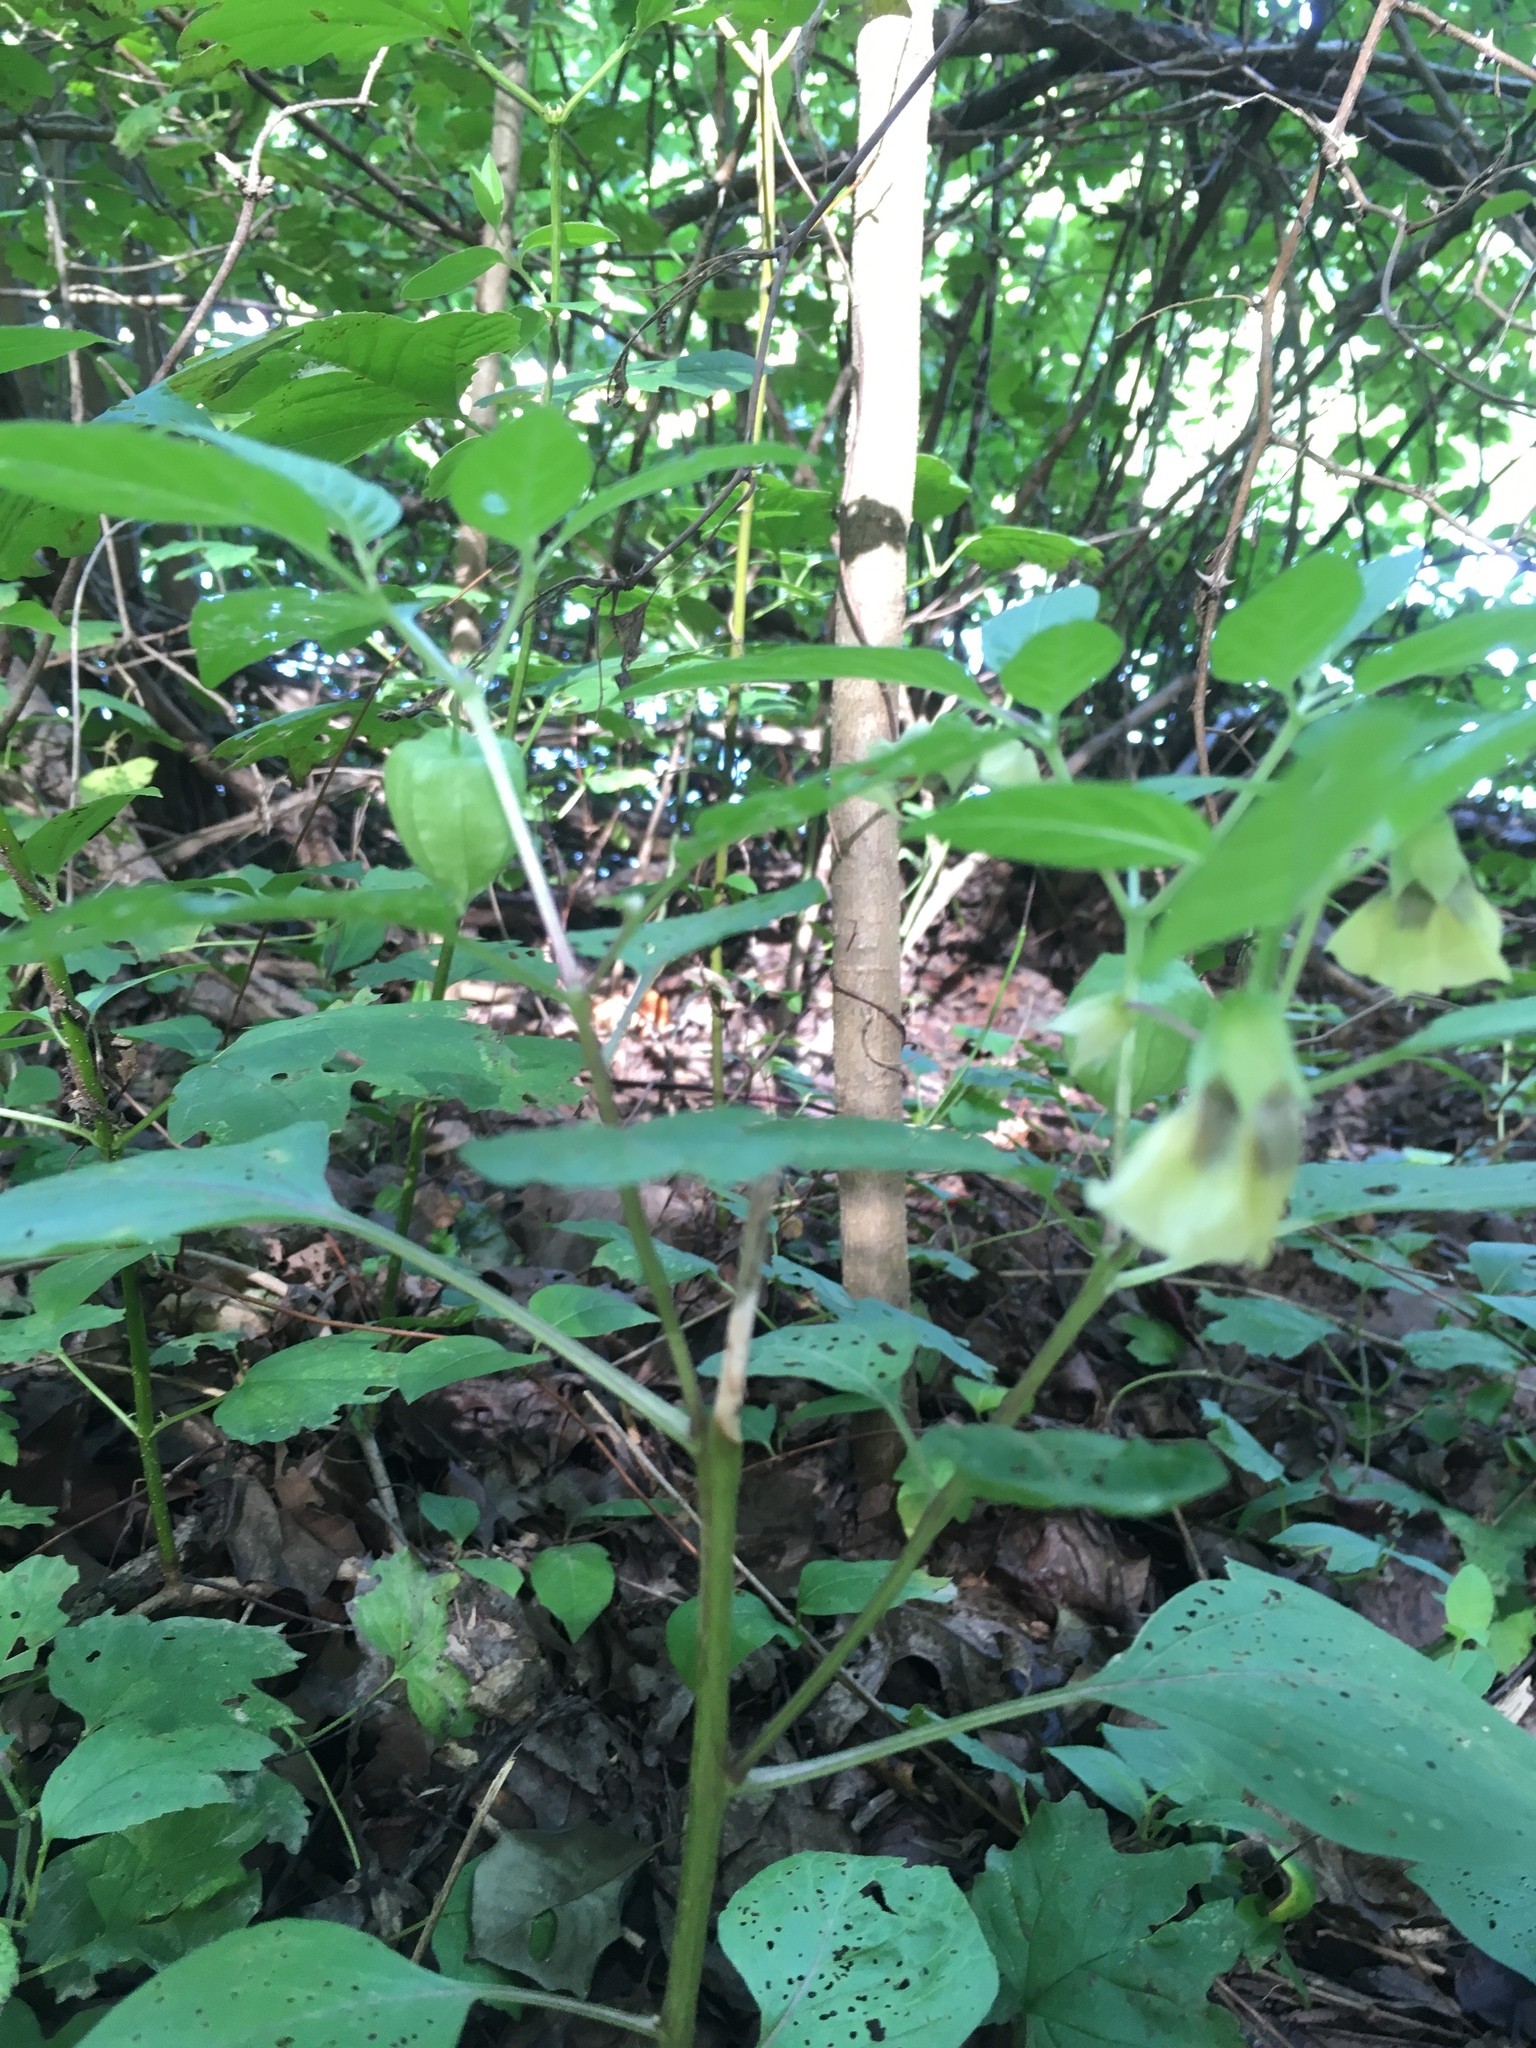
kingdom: Plantae
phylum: Tracheophyta
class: Magnoliopsida
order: Solanales
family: Solanaceae
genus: Physalis
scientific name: Physalis longifolia
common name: Common ground-cherry
